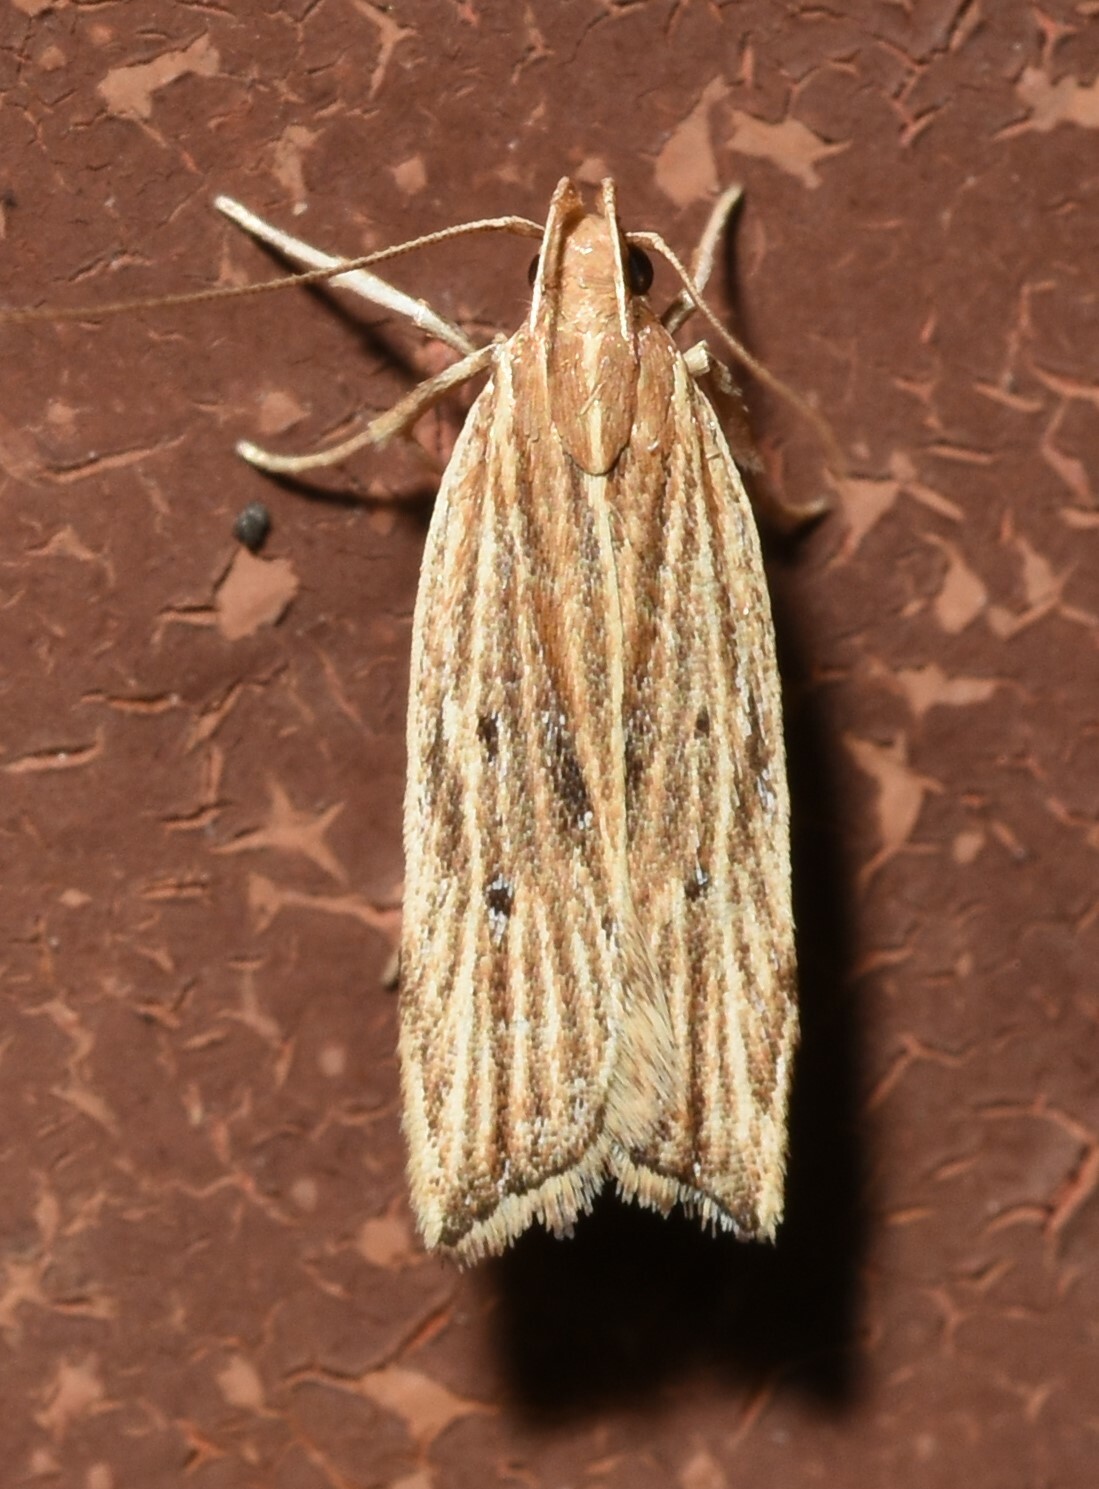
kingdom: Animalia
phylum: Arthropoda
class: Insecta
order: Lepidoptera
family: Gelechiidae
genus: Helcystogramma
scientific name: Helcystogramma hystricella
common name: Lanceolate moth
